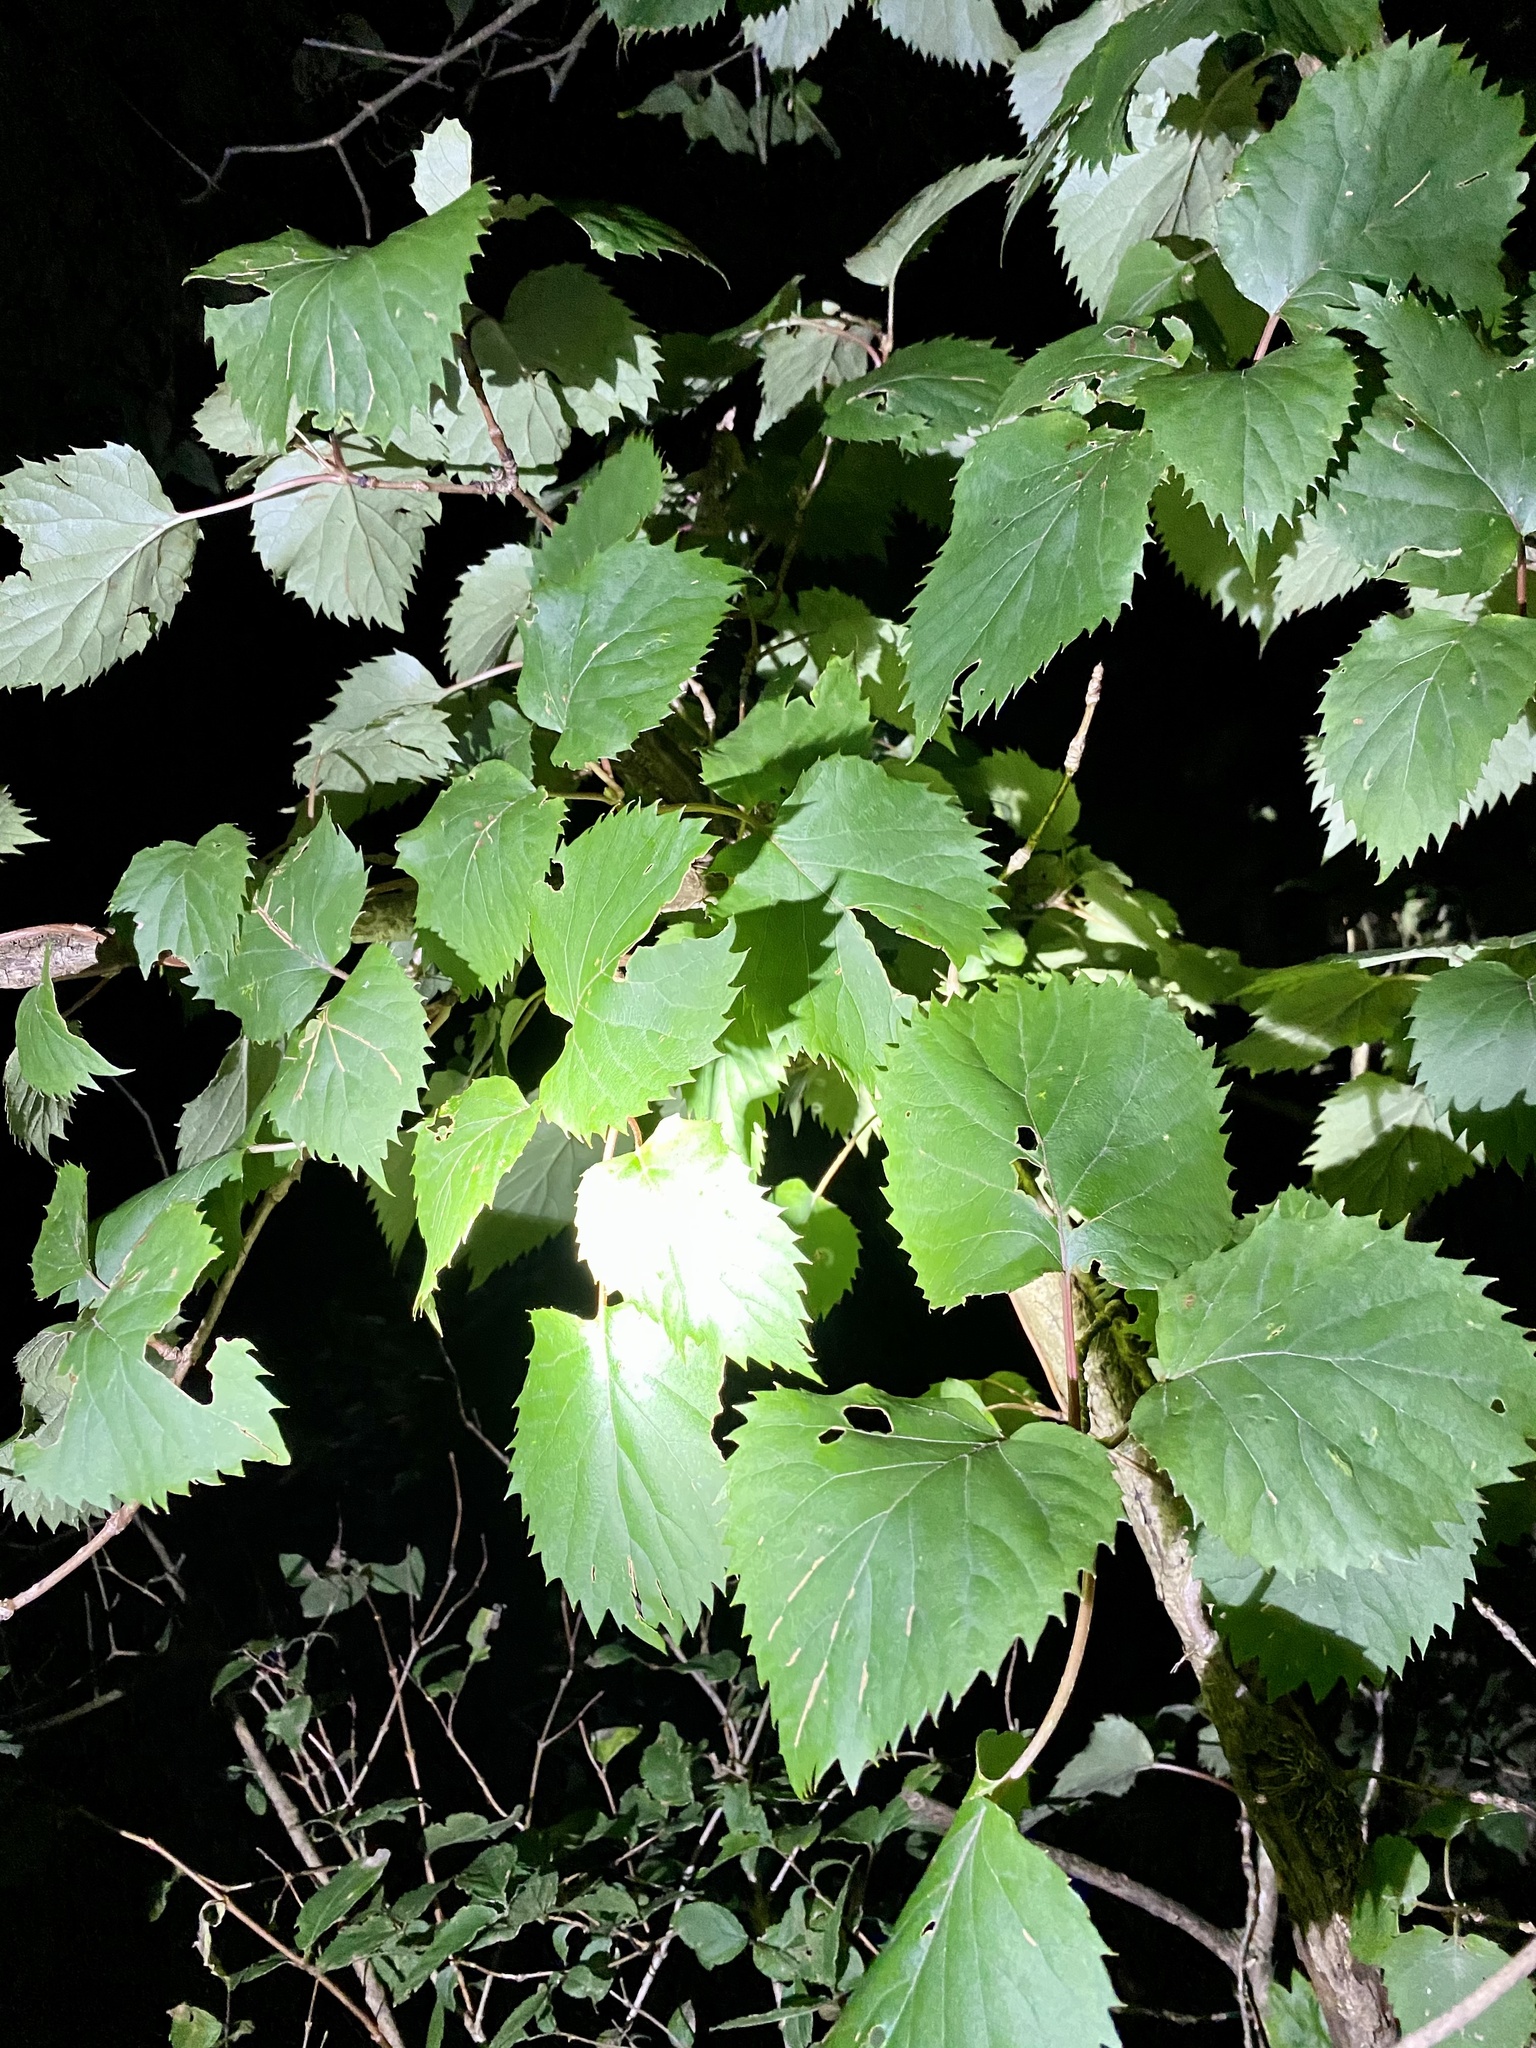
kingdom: Plantae
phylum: Tracheophyta
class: Magnoliopsida
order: Cornales
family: Hydrangeaceae
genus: Hydrangea
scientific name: Hydrangea hydrangeoides
